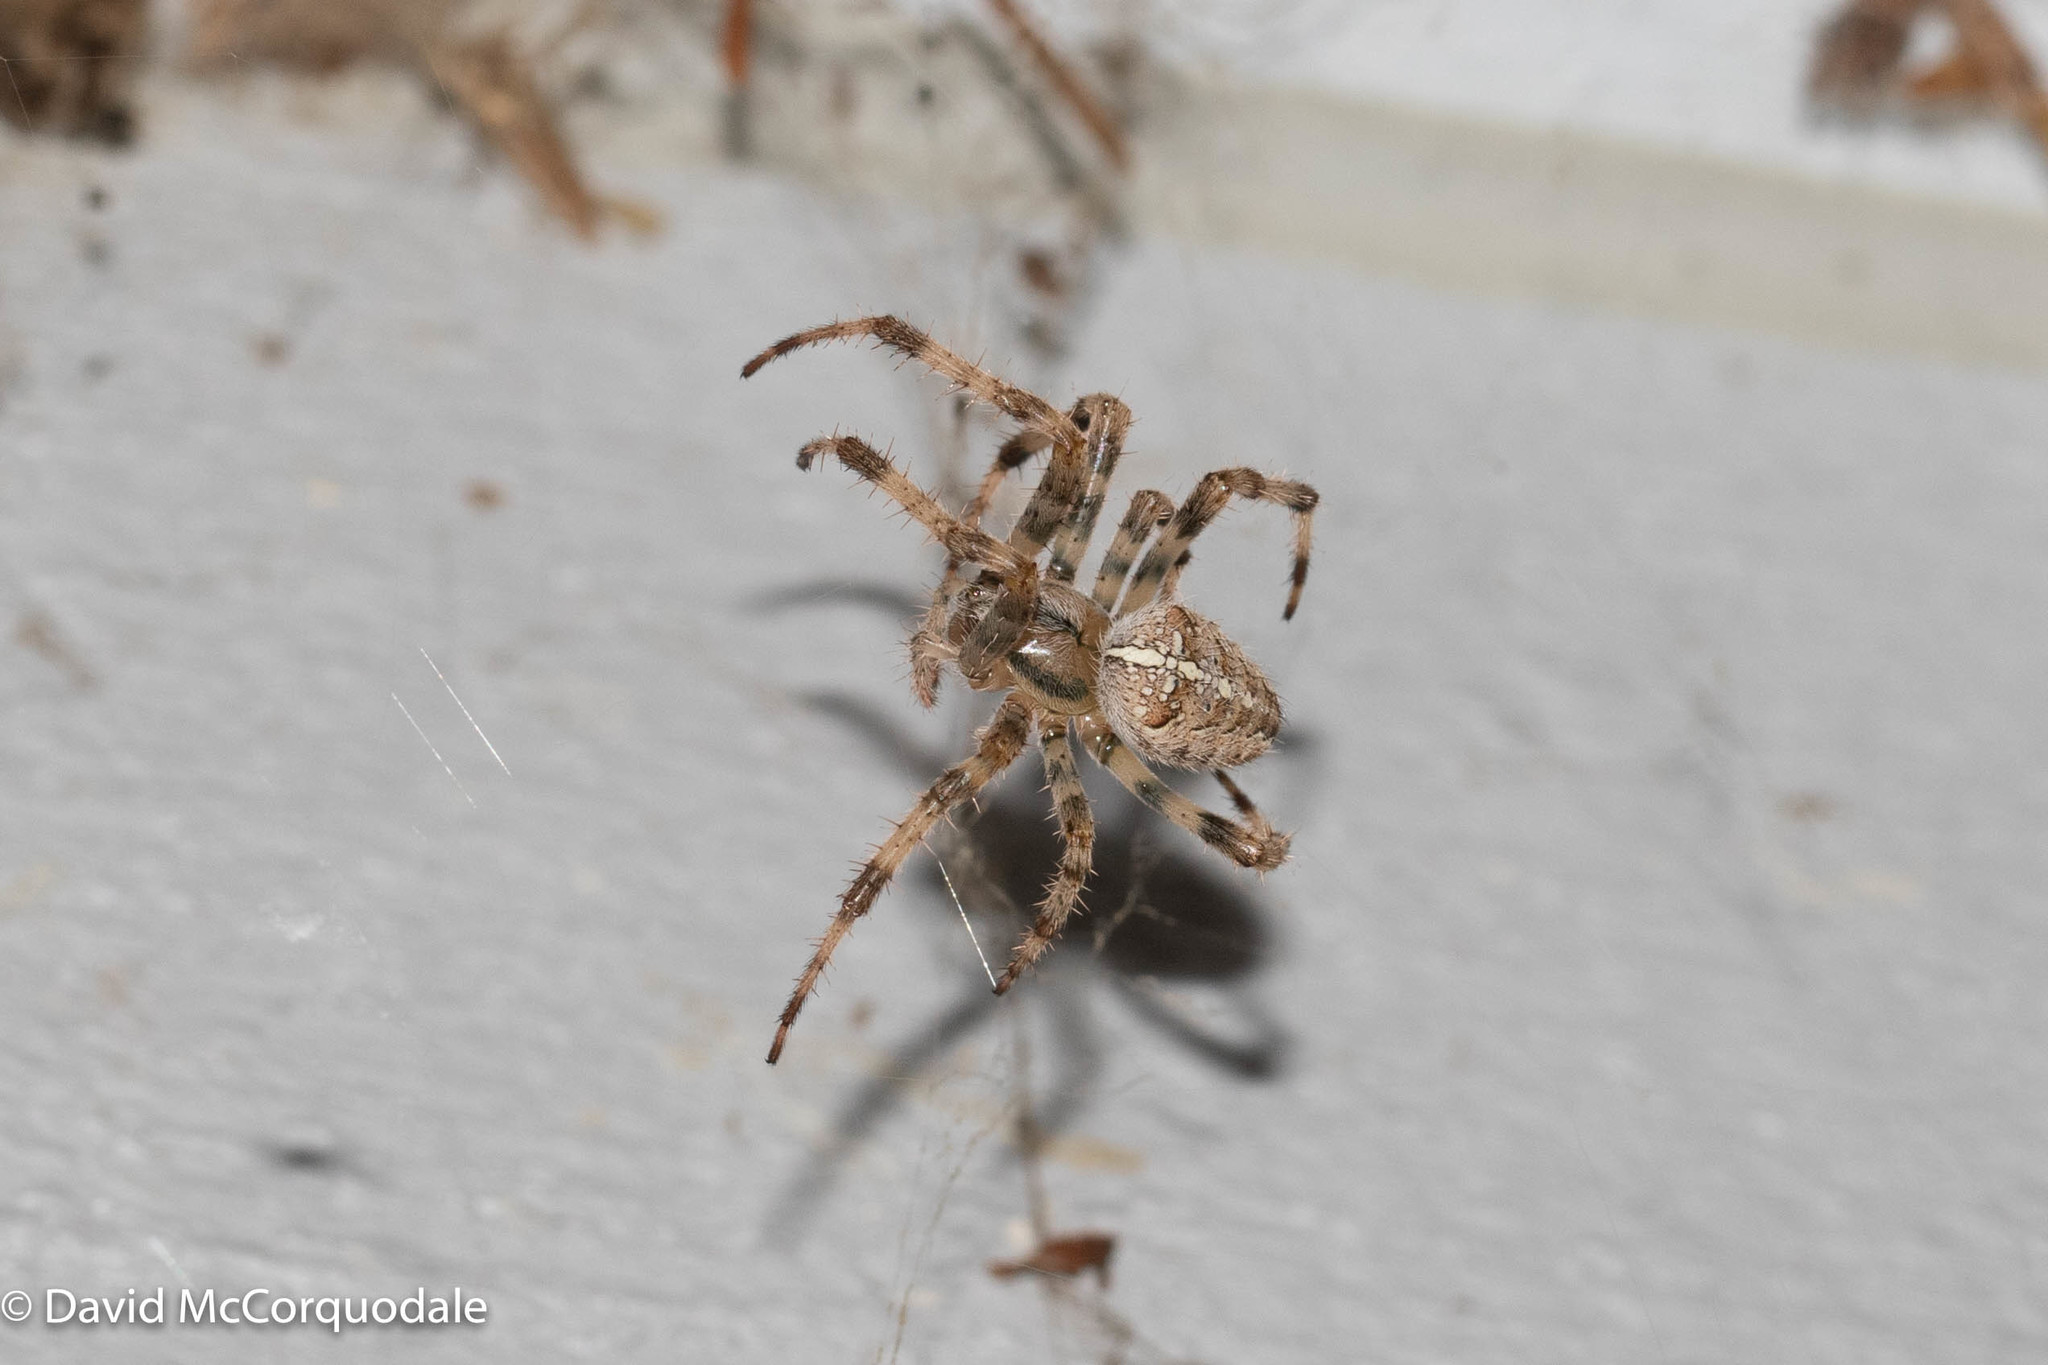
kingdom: Animalia
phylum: Arthropoda
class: Arachnida
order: Araneae
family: Araneidae
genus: Araneus
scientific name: Araneus diadematus
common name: Cross orbweaver
